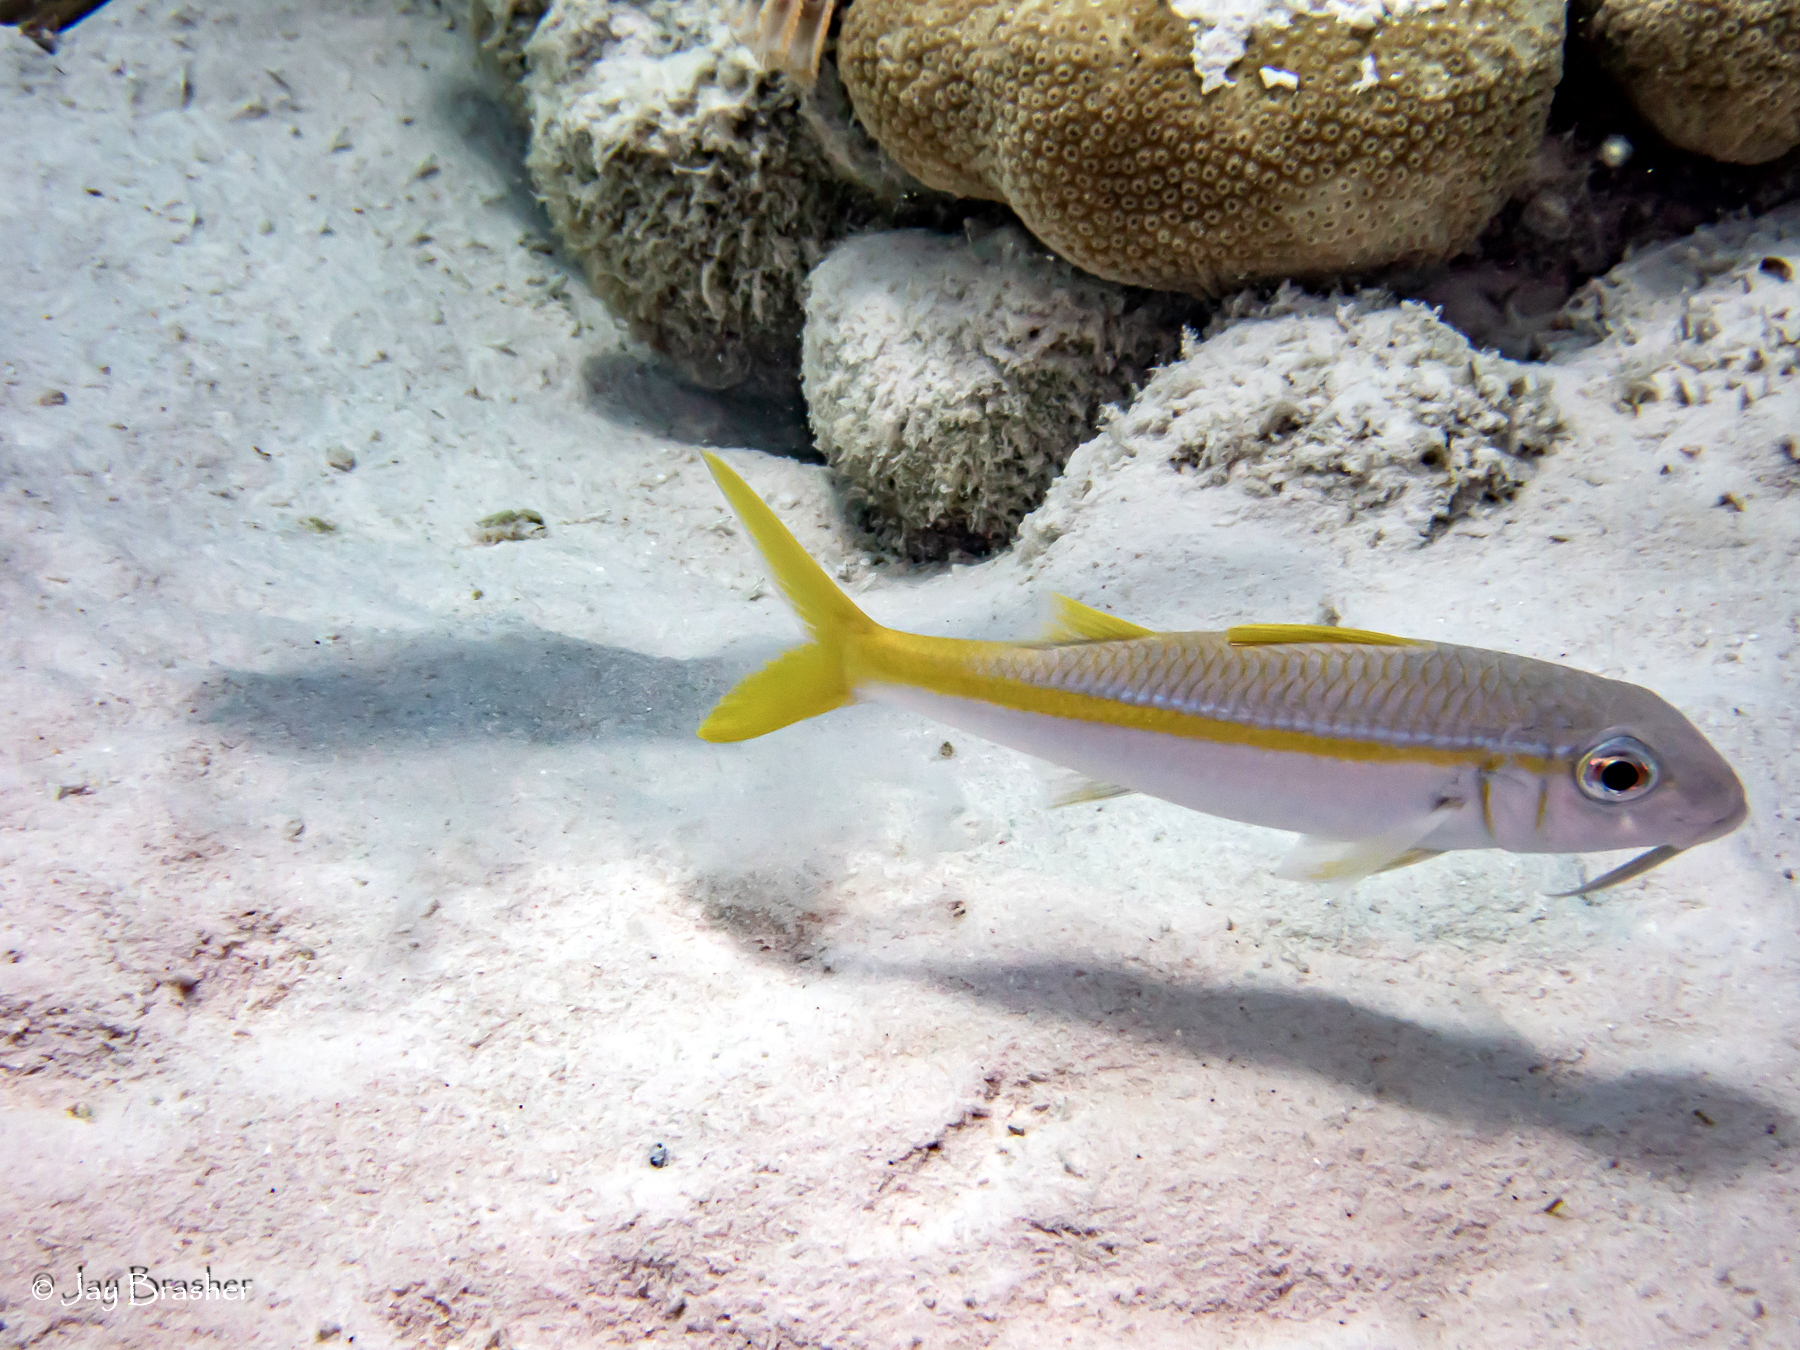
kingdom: Animalia
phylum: Chordata
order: Perciformes
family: Mullidae
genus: Mulloidichthys
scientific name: Mulloidichthys martinicus
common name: Yellow goatfish
